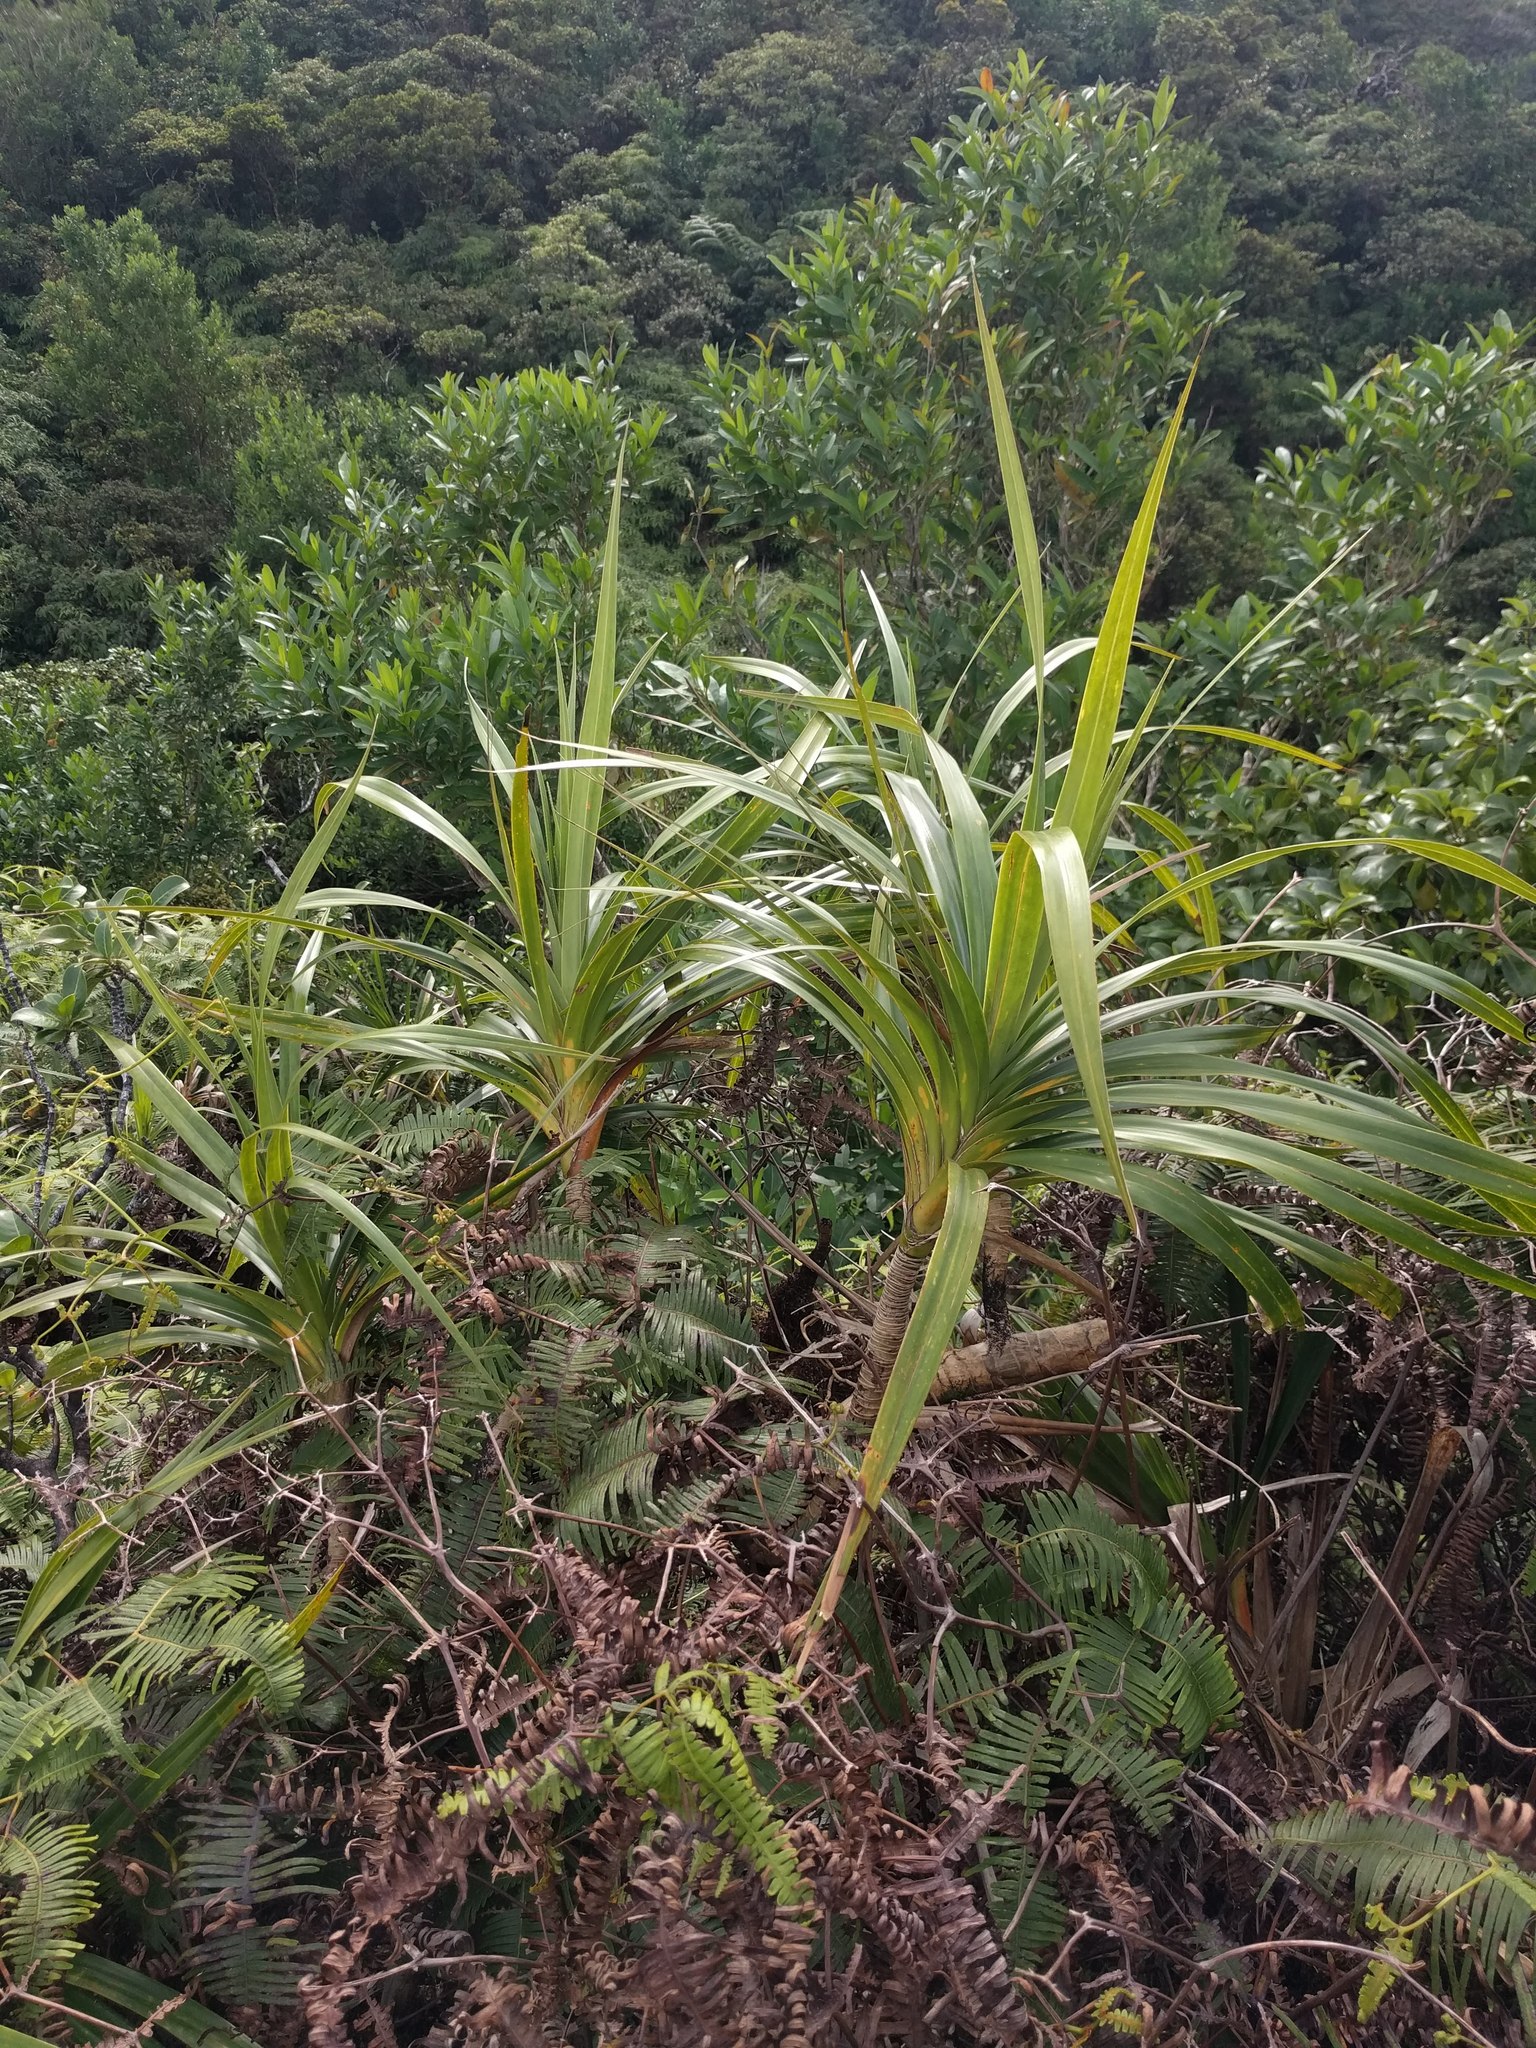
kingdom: Plantae
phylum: Tracheophyta
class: Liliopsida
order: Pandanales
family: Pandanaceae
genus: Freycinetia
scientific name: Freycinetia arborea
